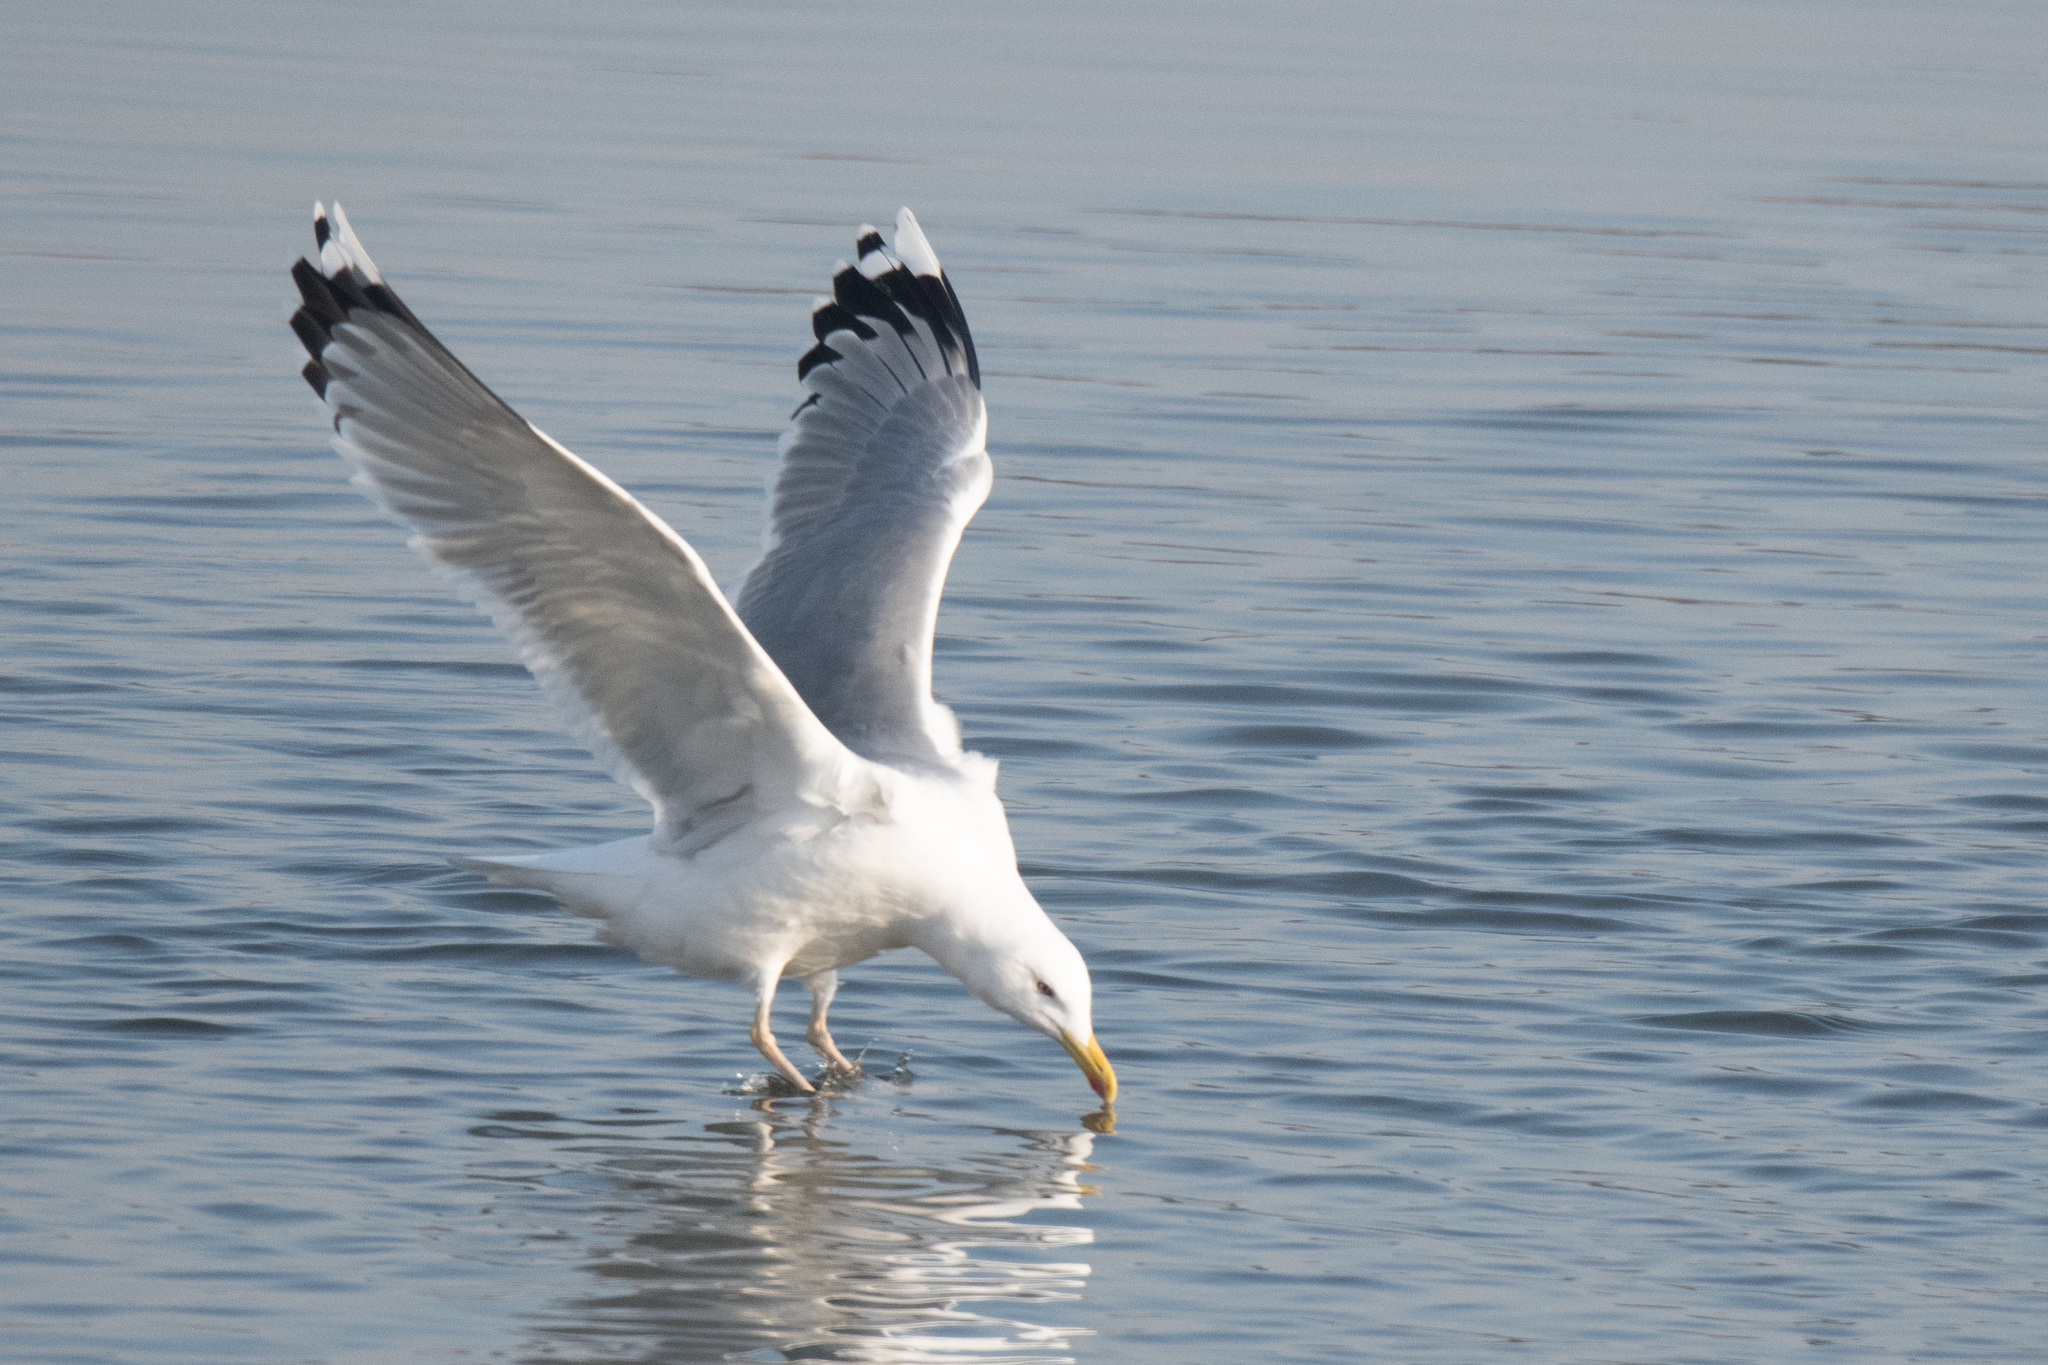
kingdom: Animalia
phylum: Chordata
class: Aves
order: Charadriiformes
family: Laridae
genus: Larus
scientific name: Larus argentatus
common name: Herring gull
